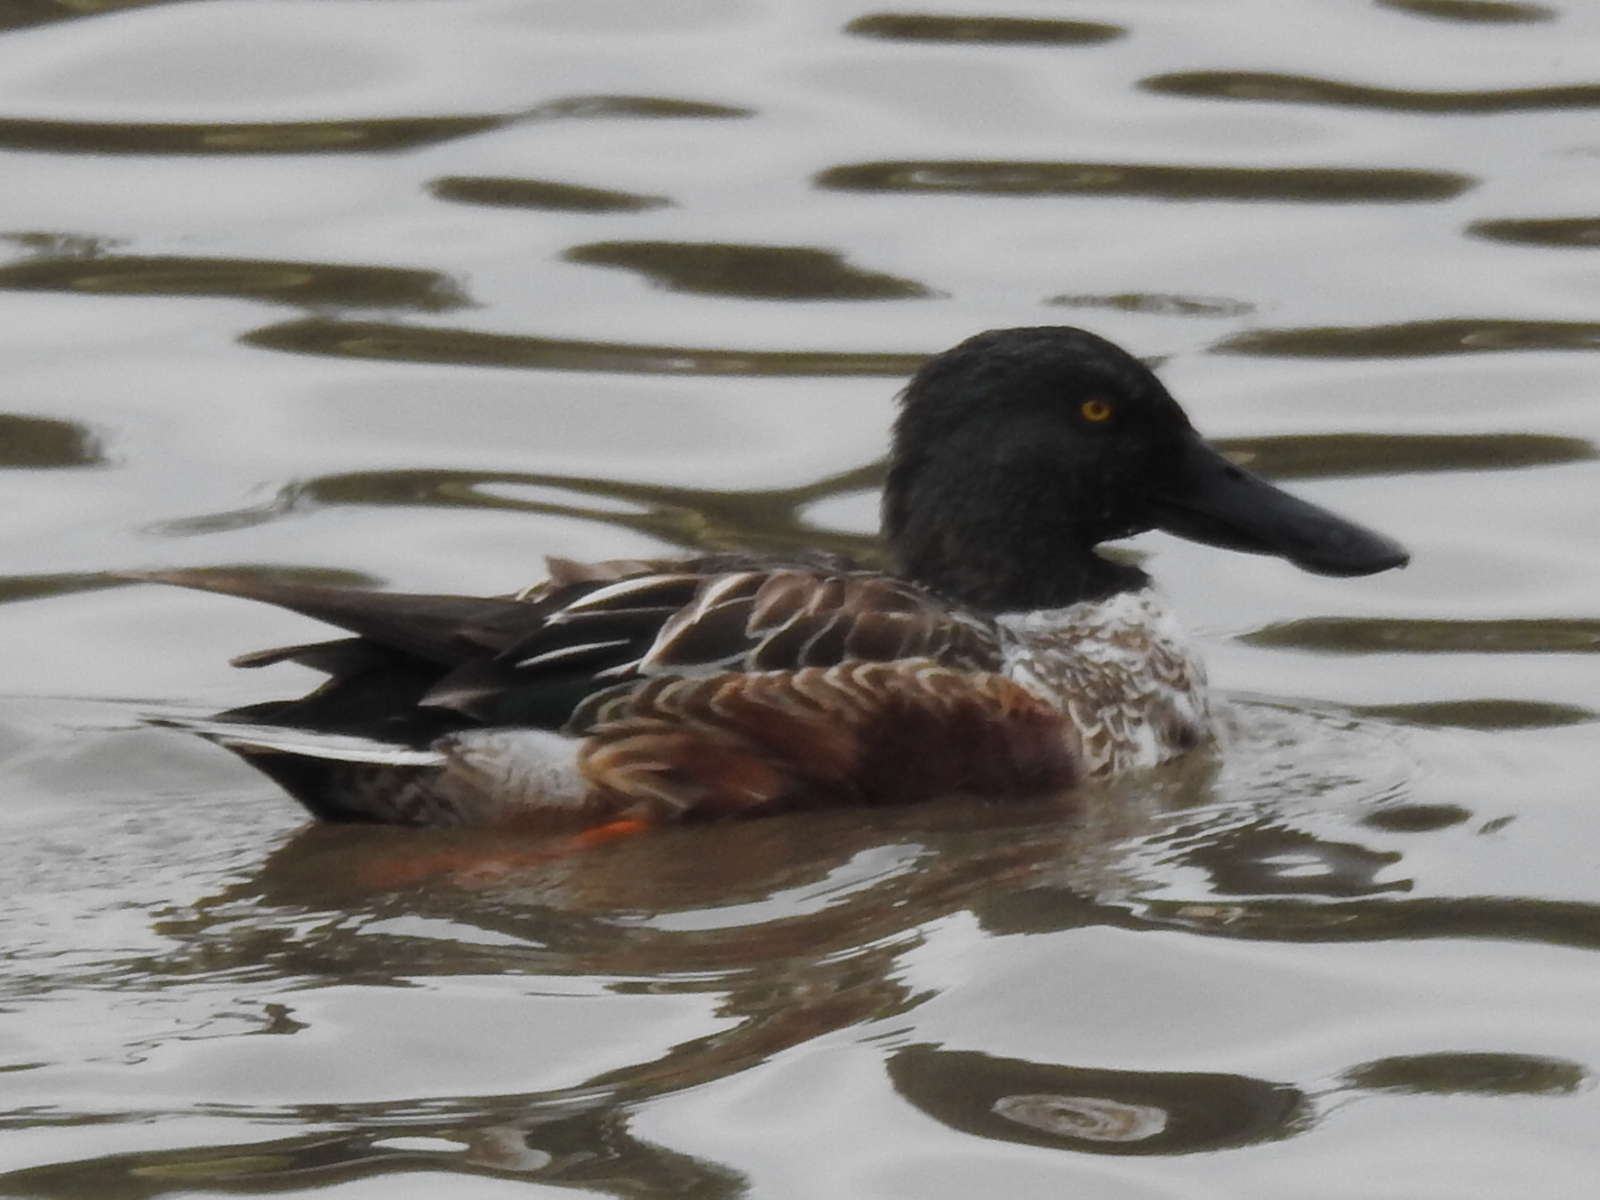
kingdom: Animalia
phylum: Chordata
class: Aves
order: Anseriformes
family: Anatidae
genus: Spatula
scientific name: Spatula clypeata
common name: Northern shoveler
